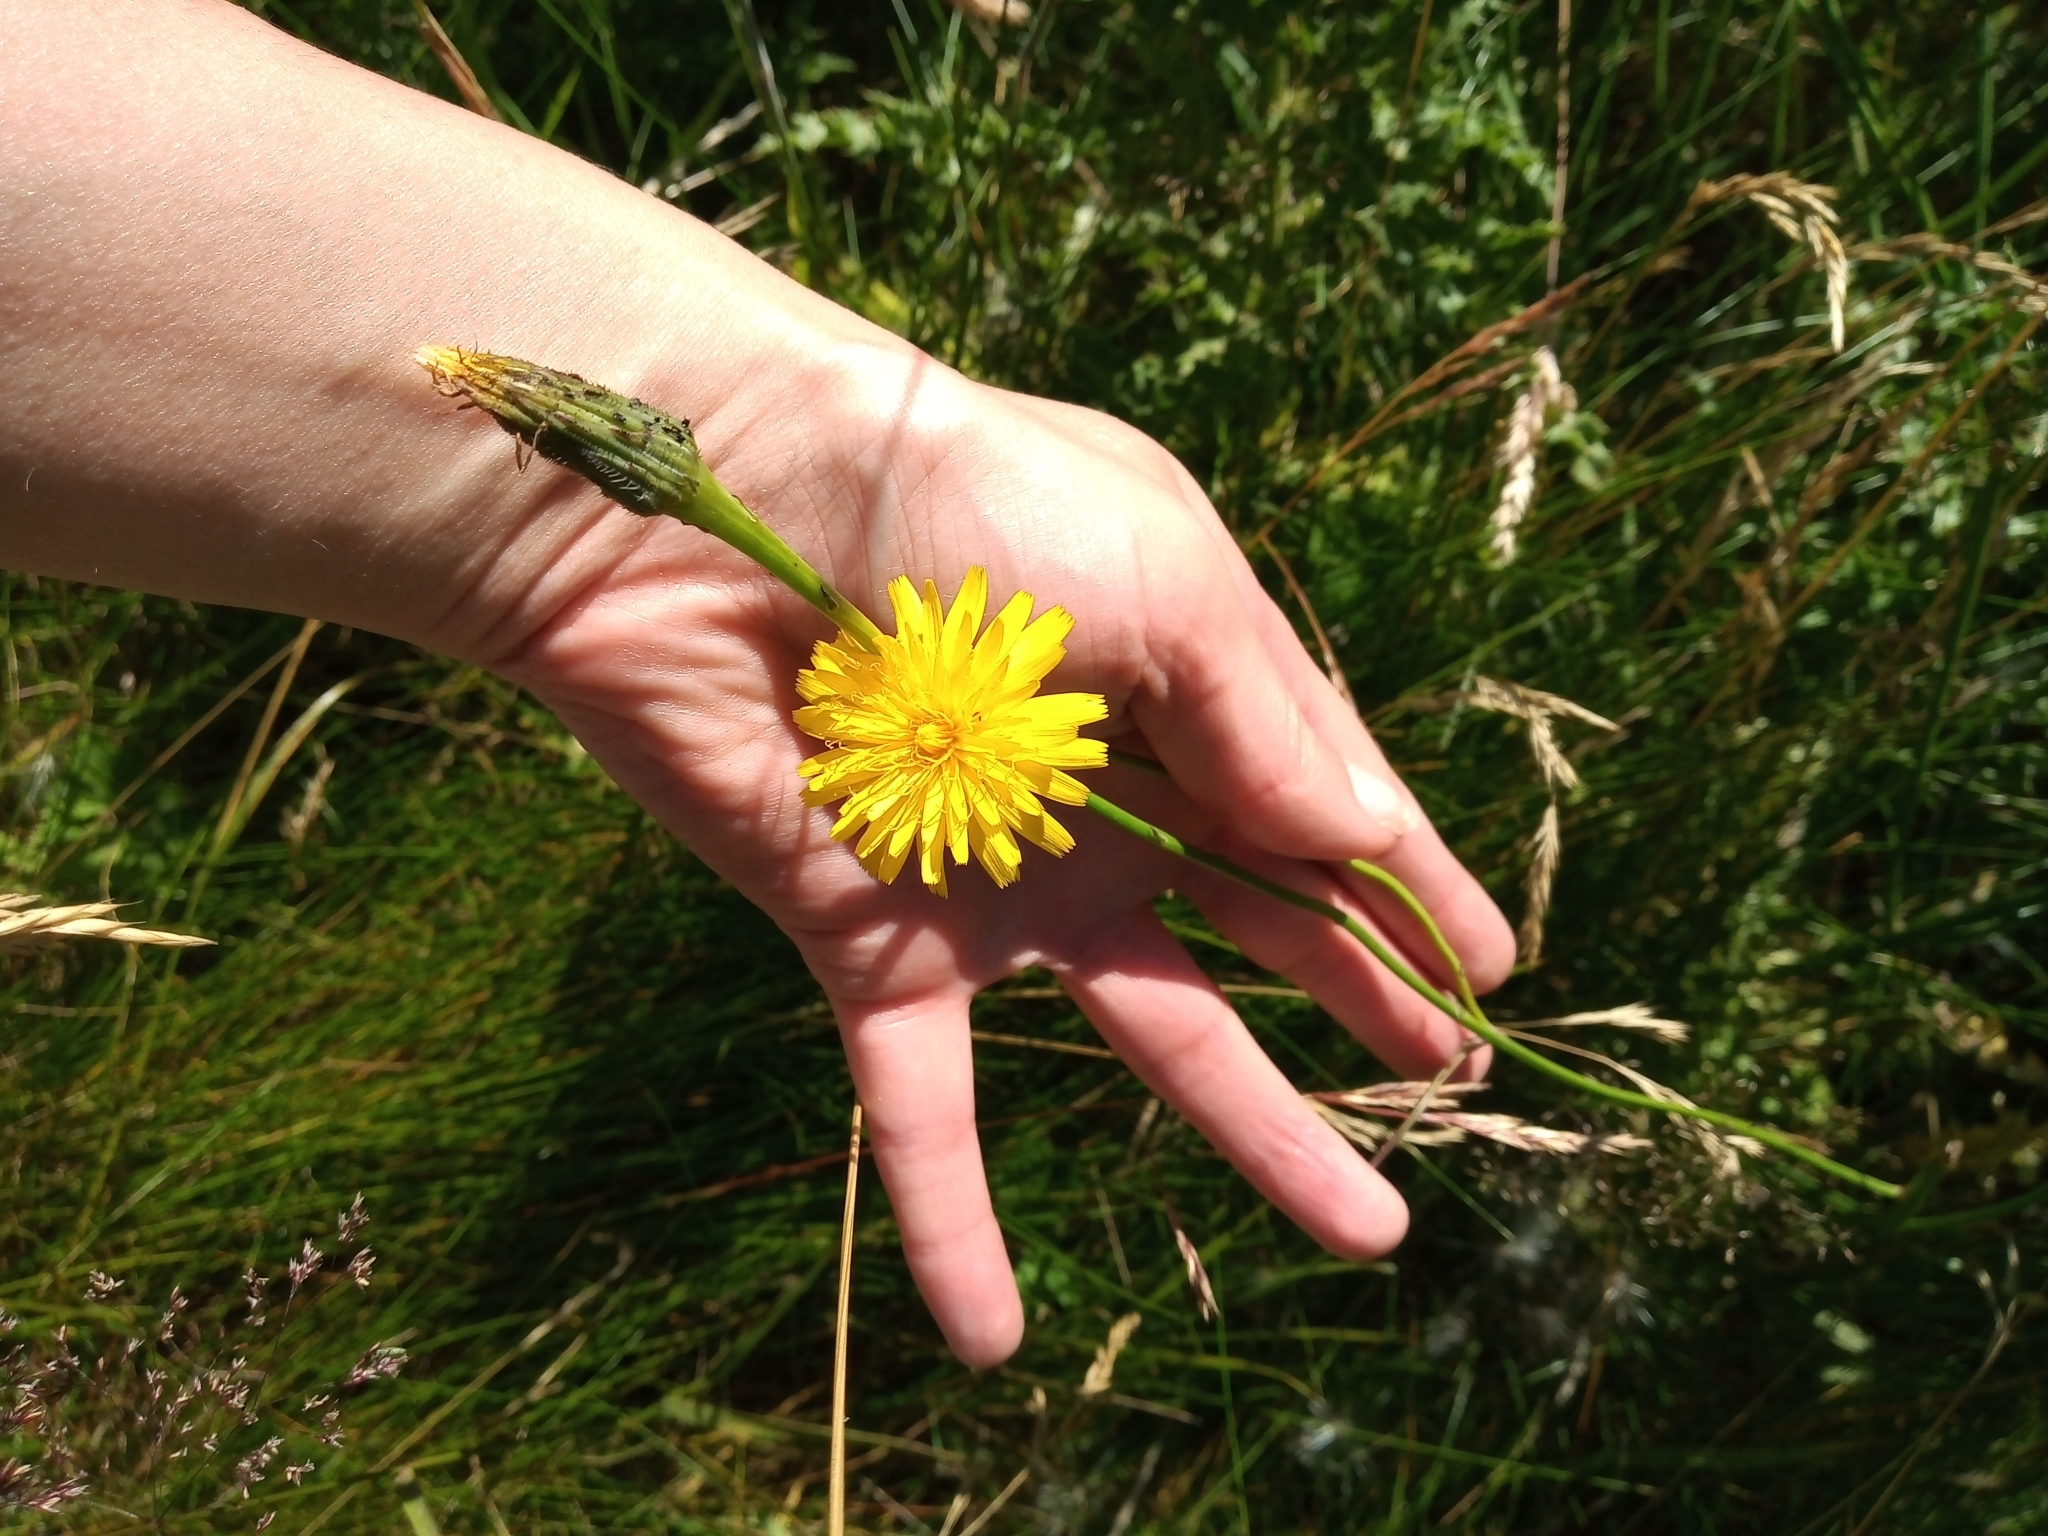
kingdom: Plantae
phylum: Tracheophyta
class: Magnoliopsida
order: Asterales
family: Asteraceae
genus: Hypochaeris
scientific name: Hypochaeris radicata
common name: Flatweed
